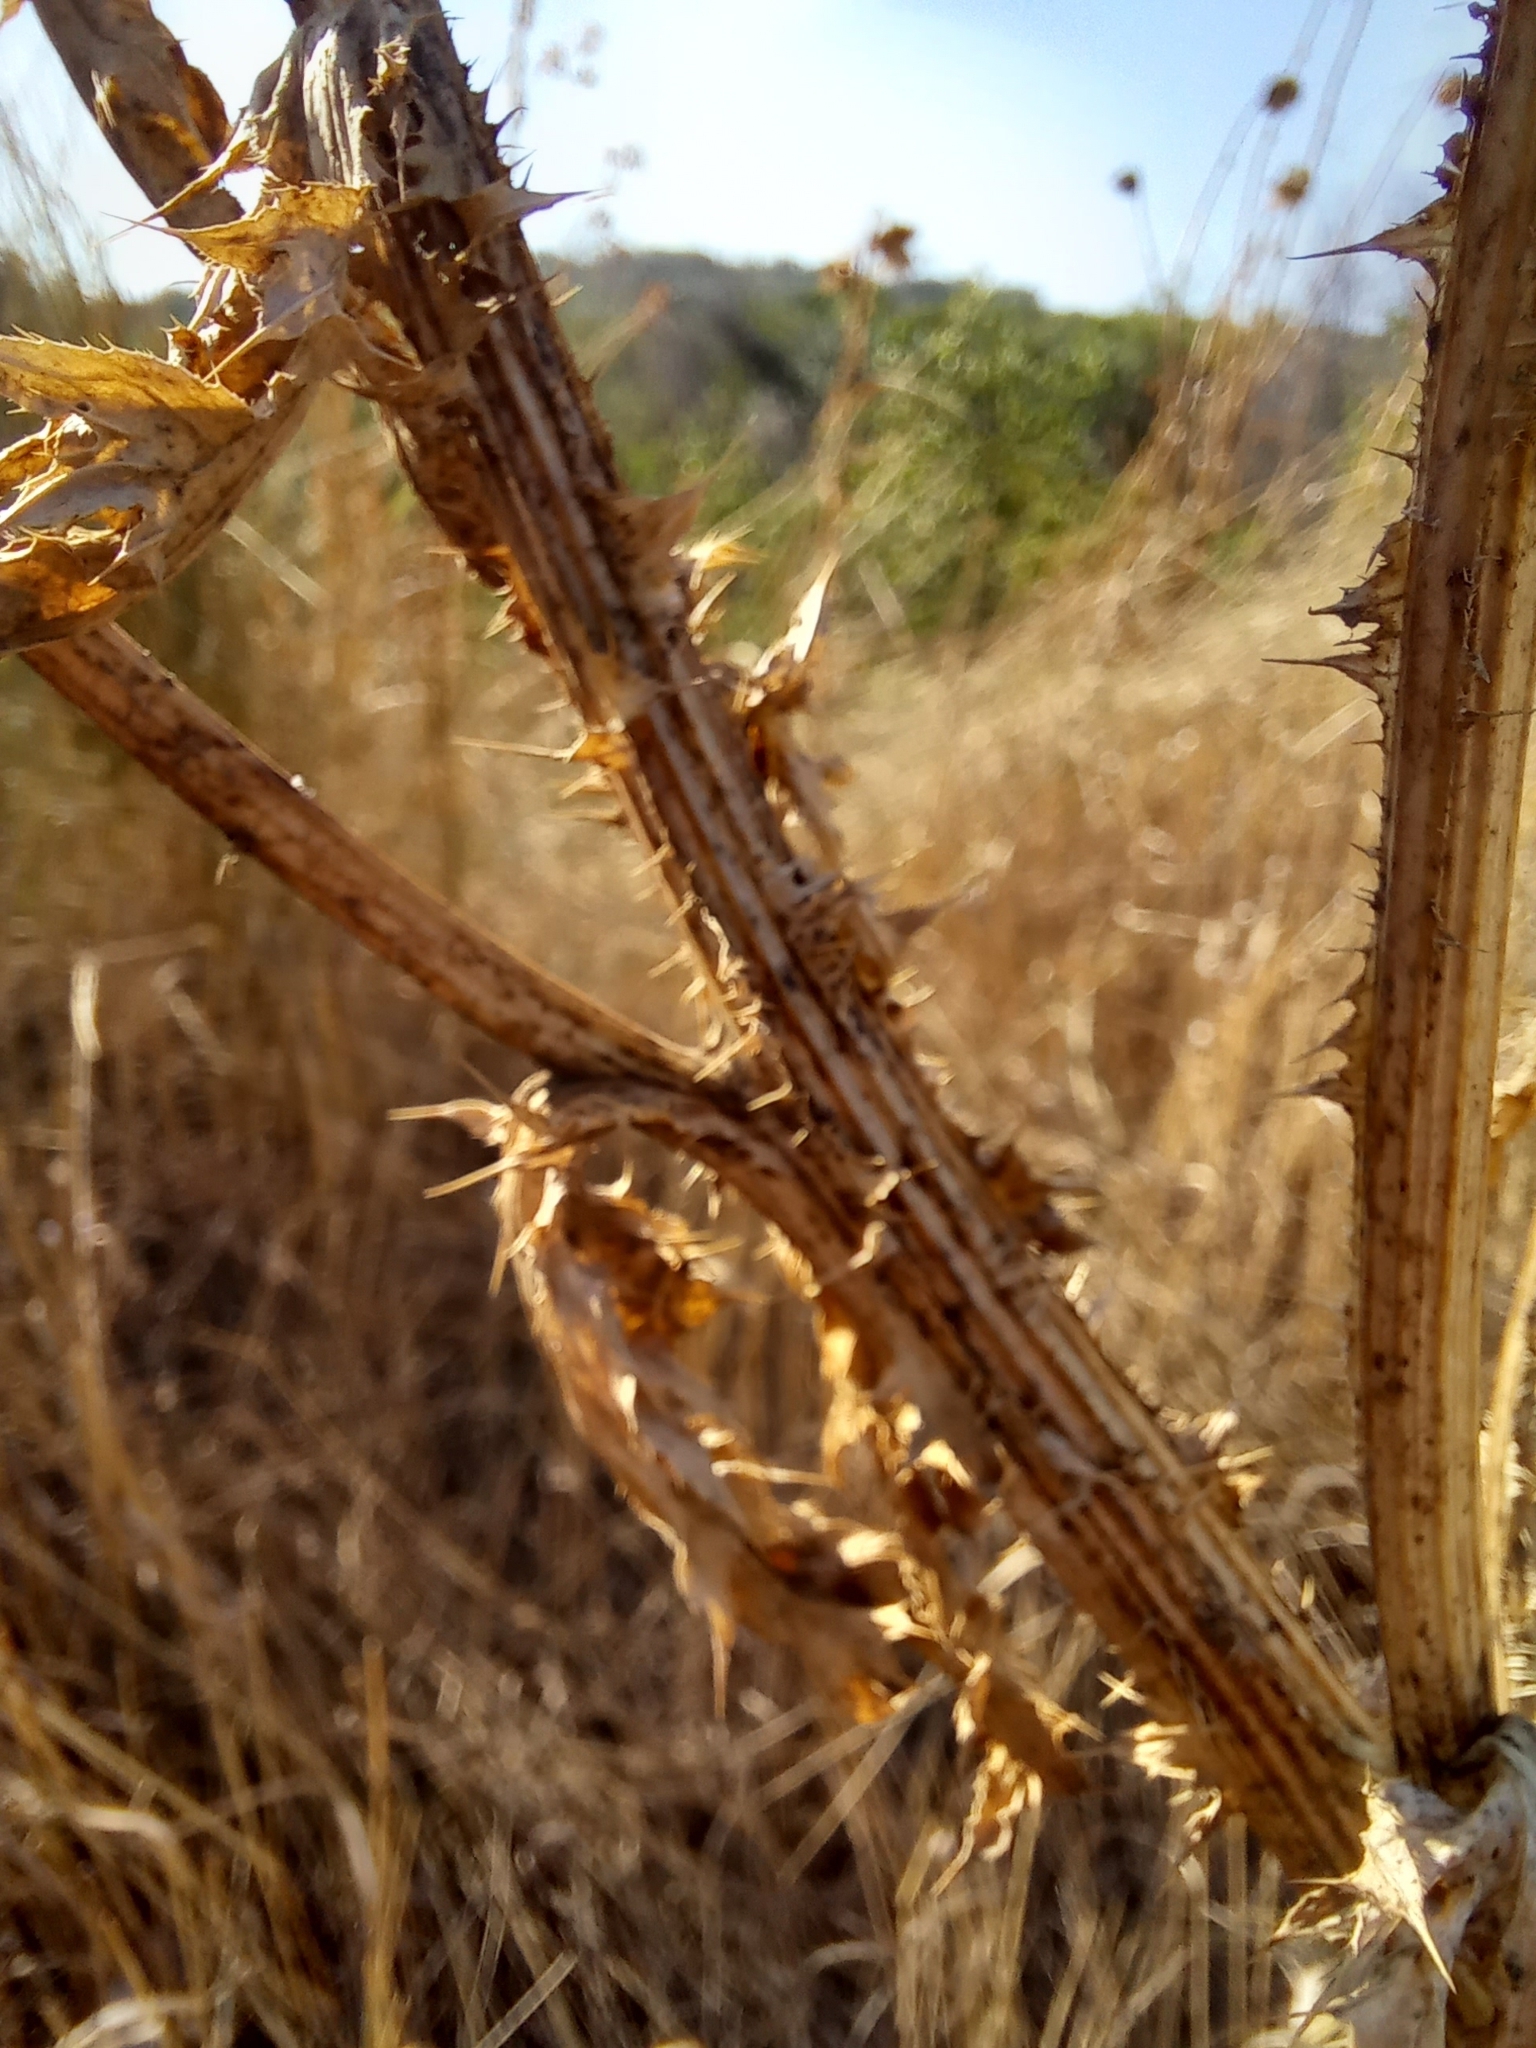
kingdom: Plantae
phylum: Tracheophyta
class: Magnoliopsida
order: Asterales
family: Asteraceae
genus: Carduus
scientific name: Carduus nutans
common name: Musk thistle
